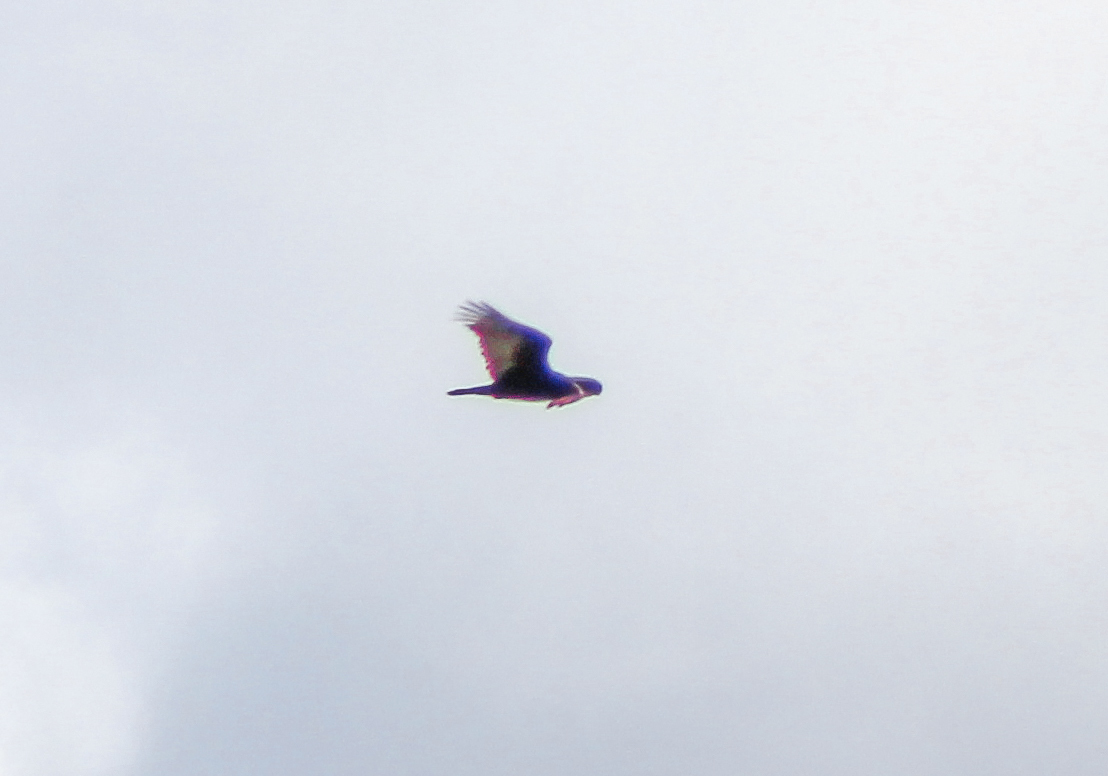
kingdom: Animalia
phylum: Chordata
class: Aves
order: Accipitriformes
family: Cathartidae
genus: Cathartes
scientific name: Cathartes aura
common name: Turkey vulture
